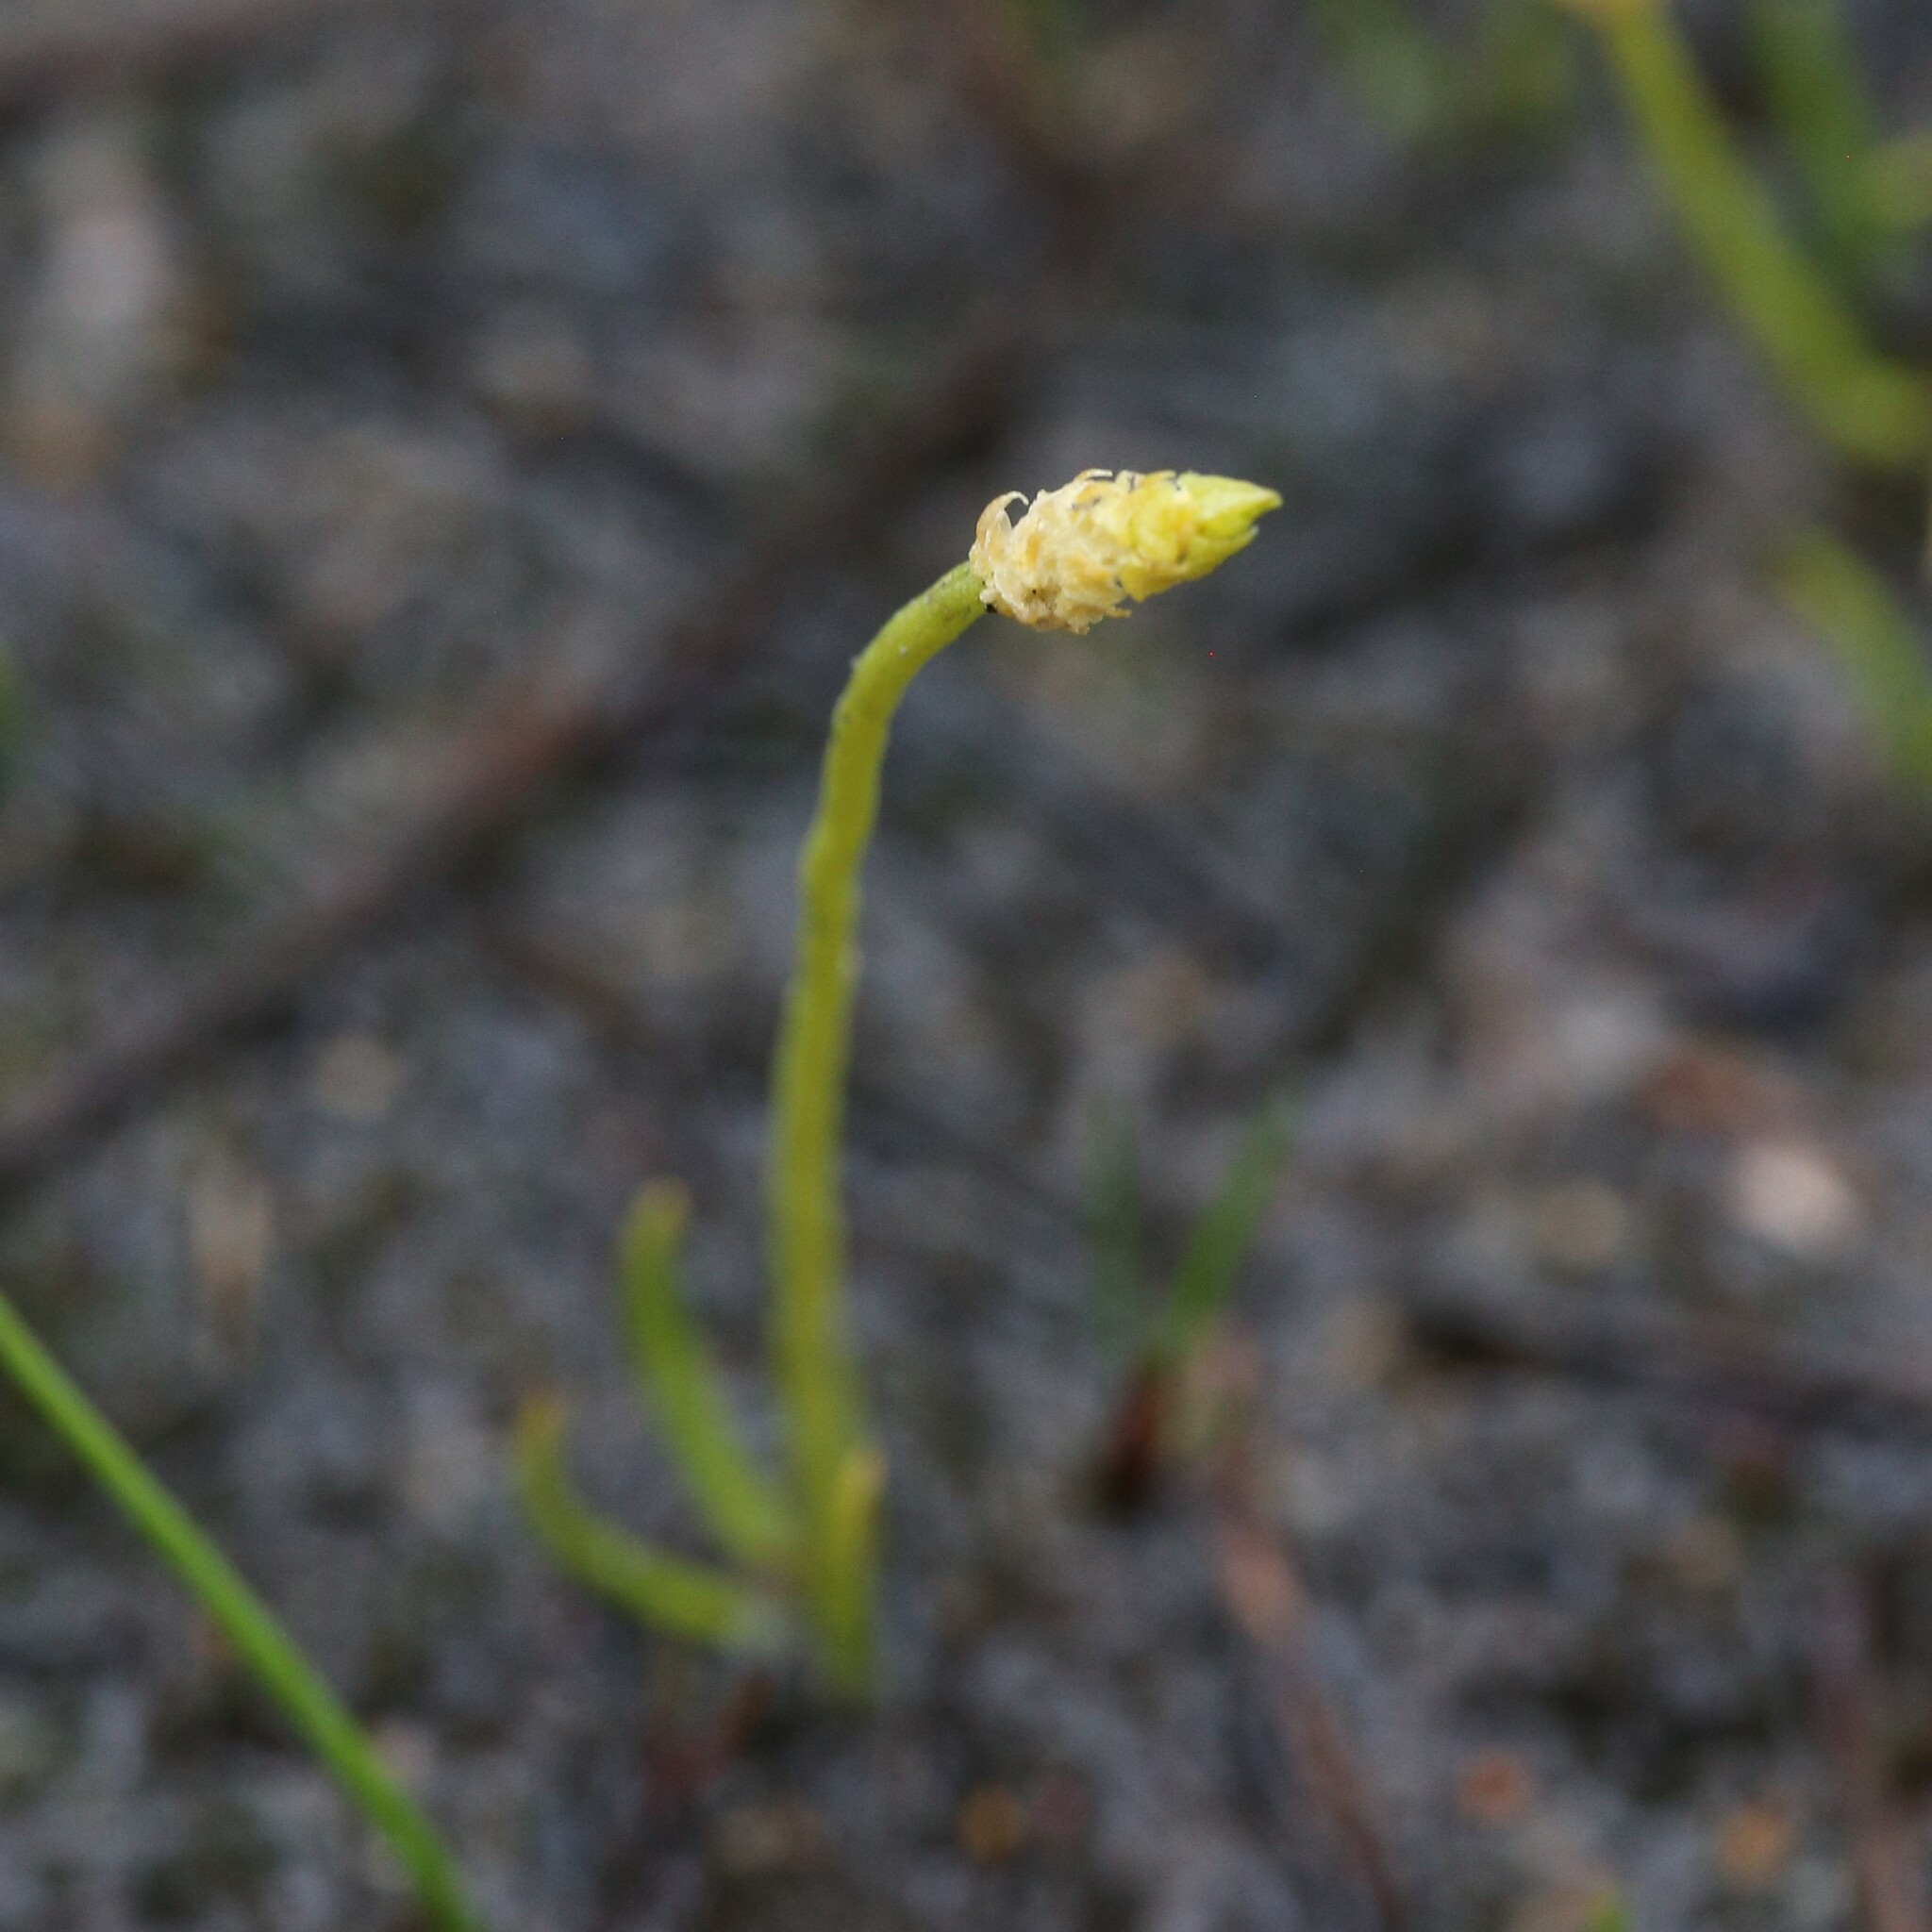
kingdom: Plantae
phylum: Tracheophyta
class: Lycopodiopsida
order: Lycopodiales
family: Lycopodiaceae
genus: Phylloglossum
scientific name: Phylloglossum drummondii
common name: Pigmy-club-moss
